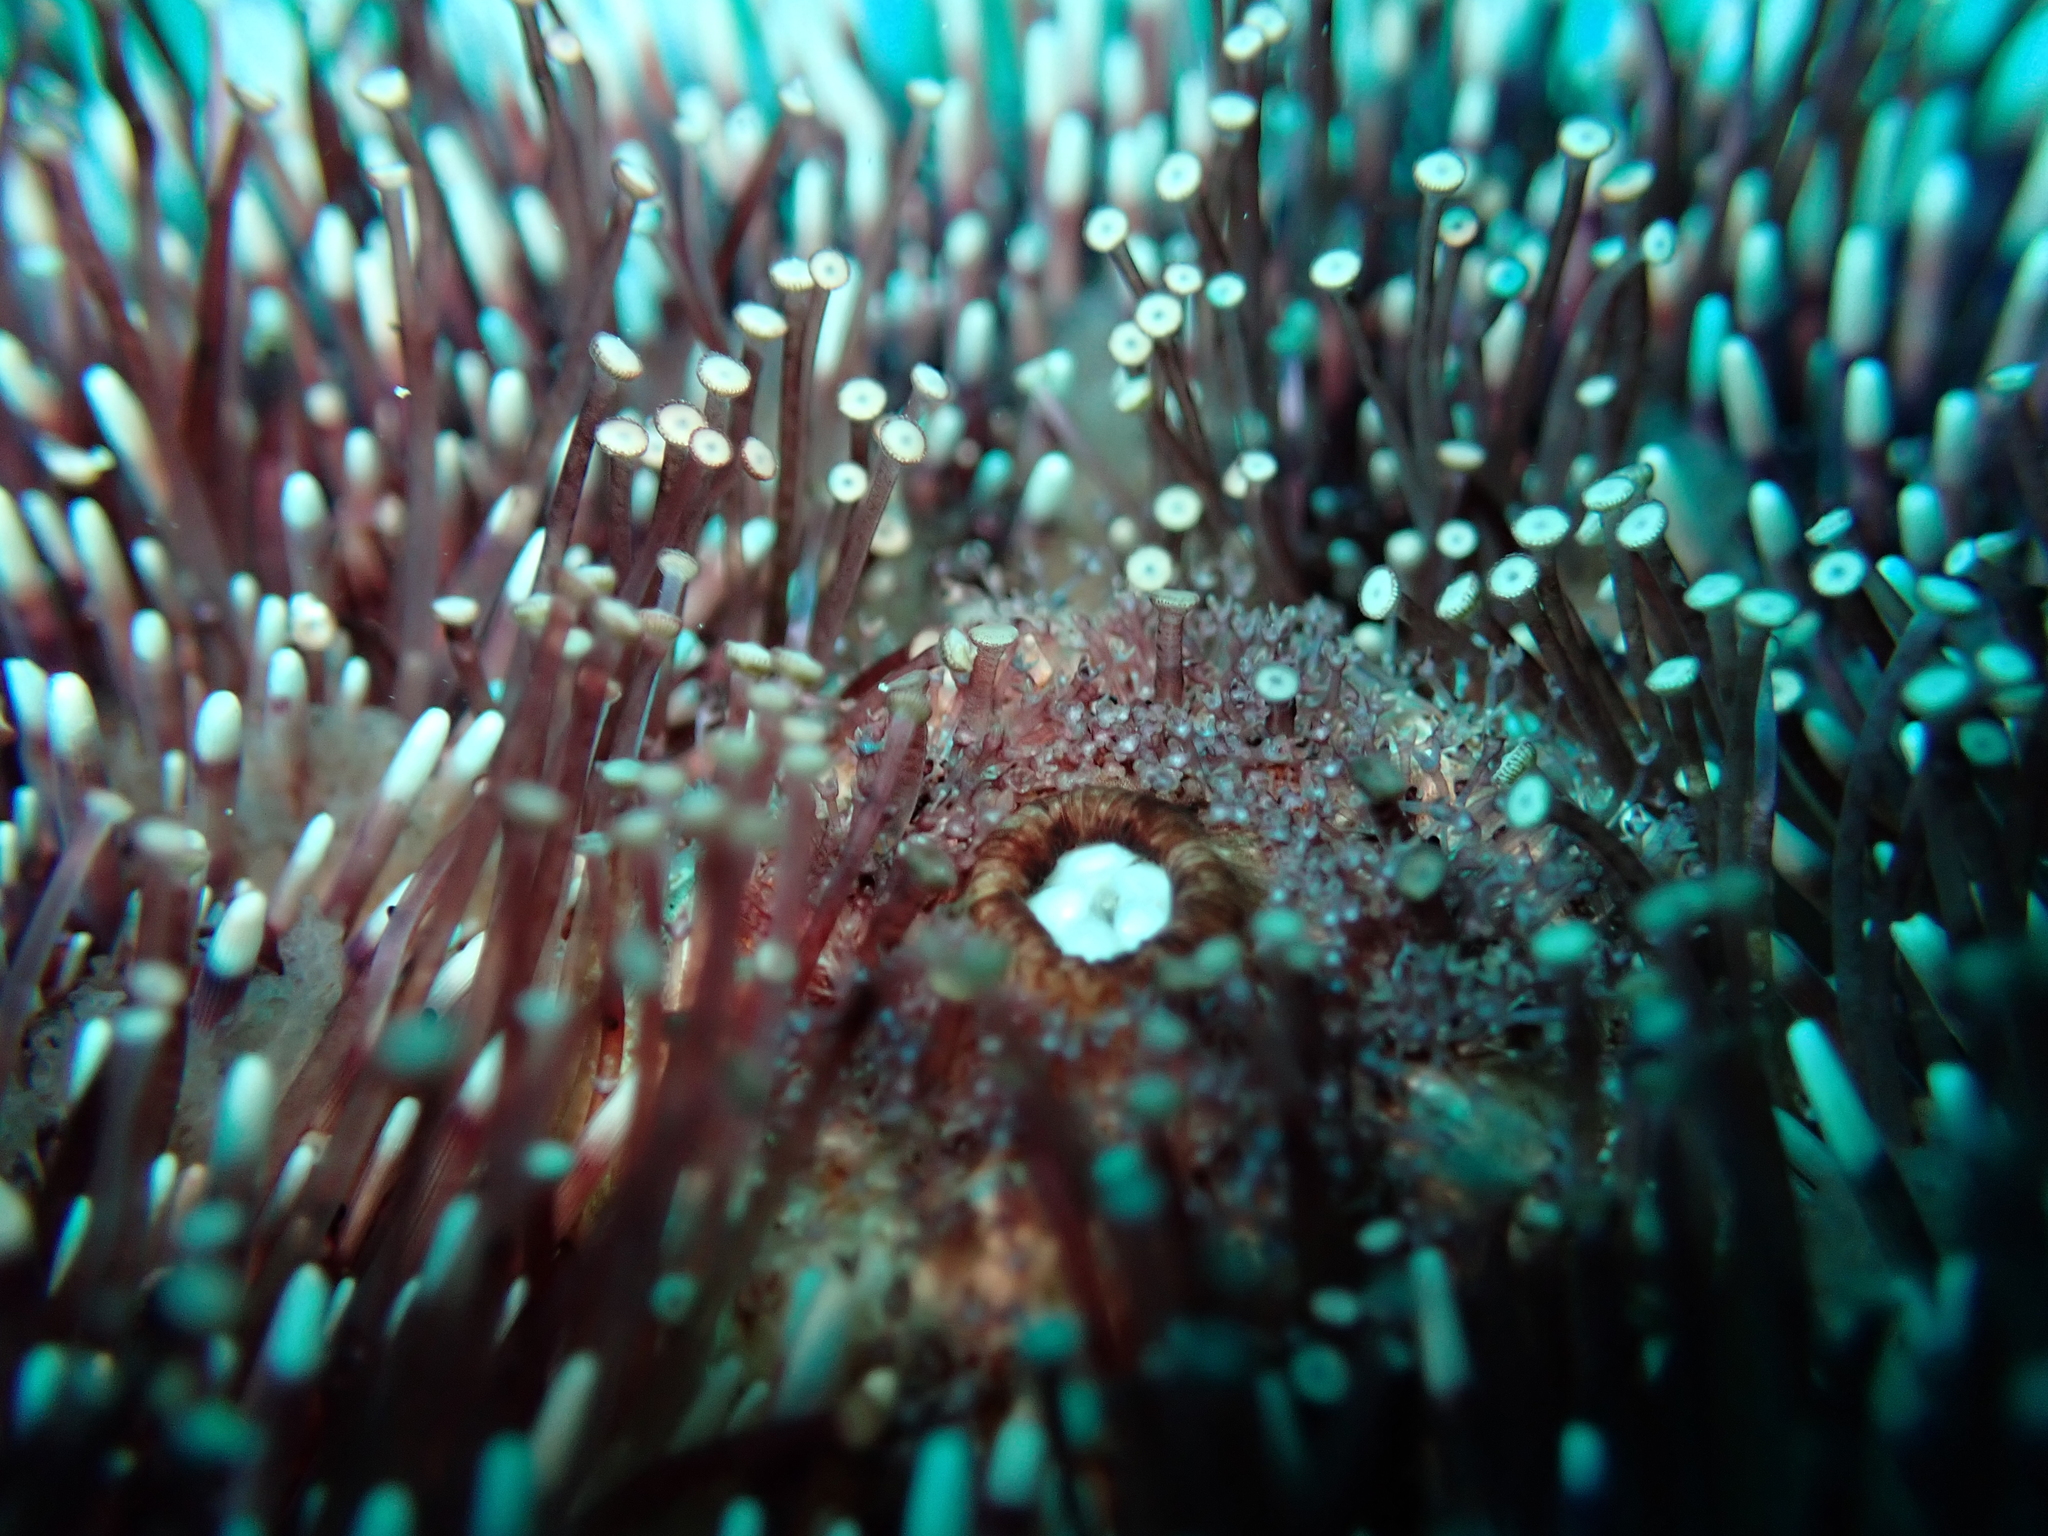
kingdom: Animalia
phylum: Echinodermata
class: Echinoidea
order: Camarodonta
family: Toxopneustidae
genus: Sphaerechinus
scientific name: Sphaerechinus granularis
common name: Violet sea urchin
